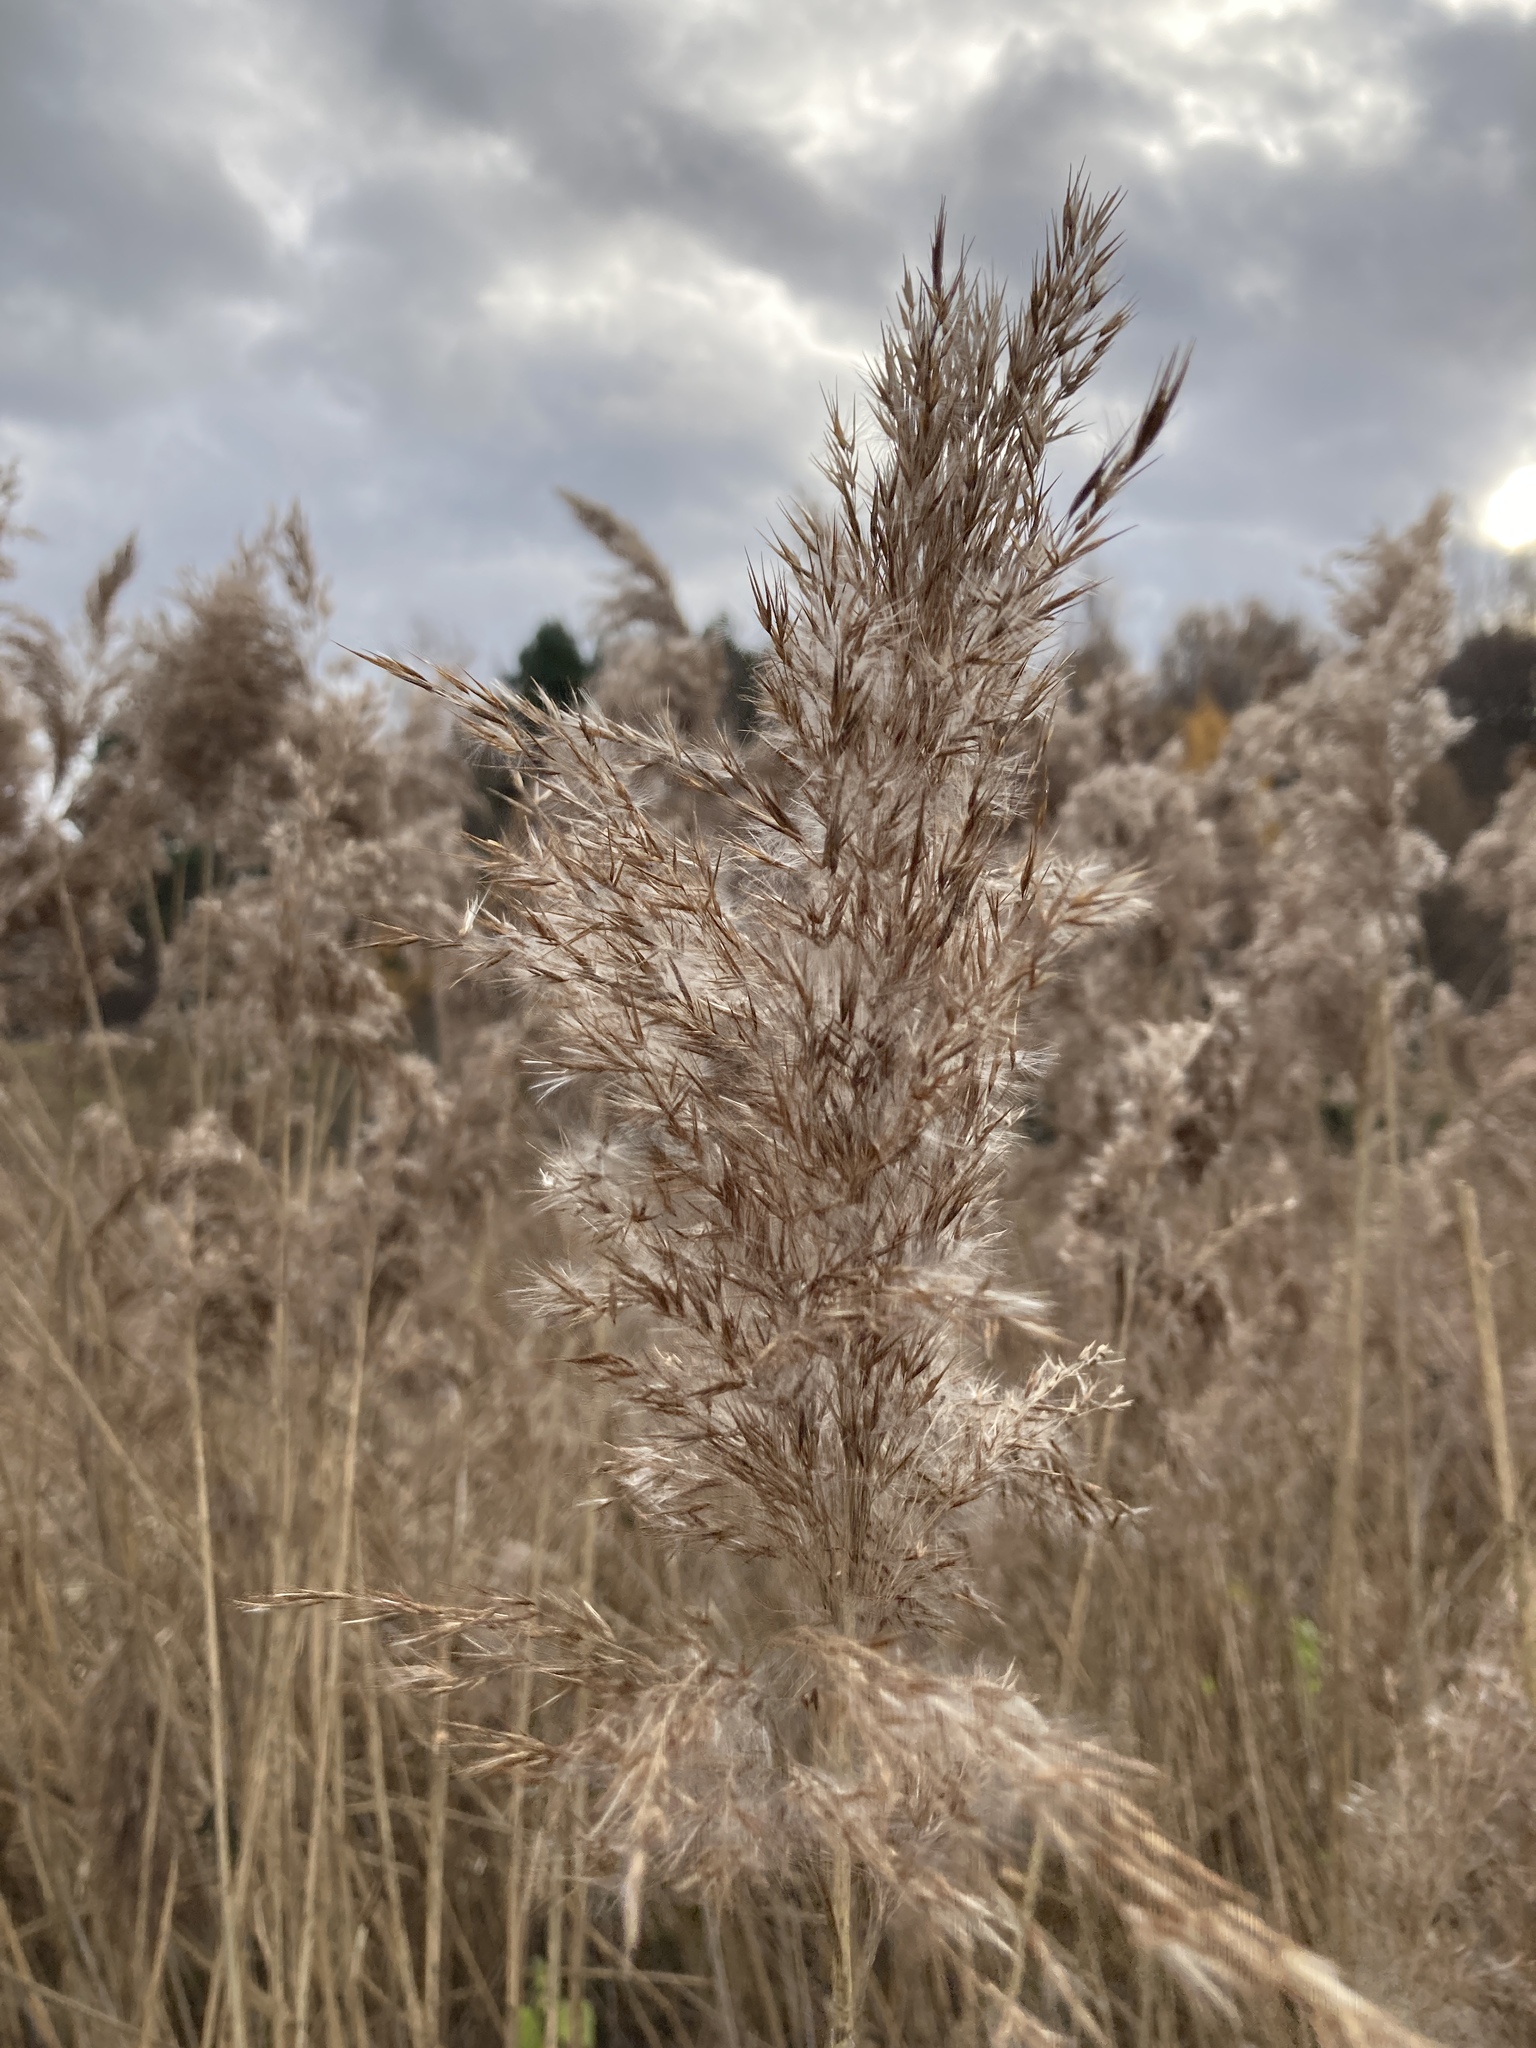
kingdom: Plantae
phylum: Tracheophyta
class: Liliopsida
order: Poales
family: Poaceae
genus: Phragmites
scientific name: Phragmites australis
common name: Common reed
